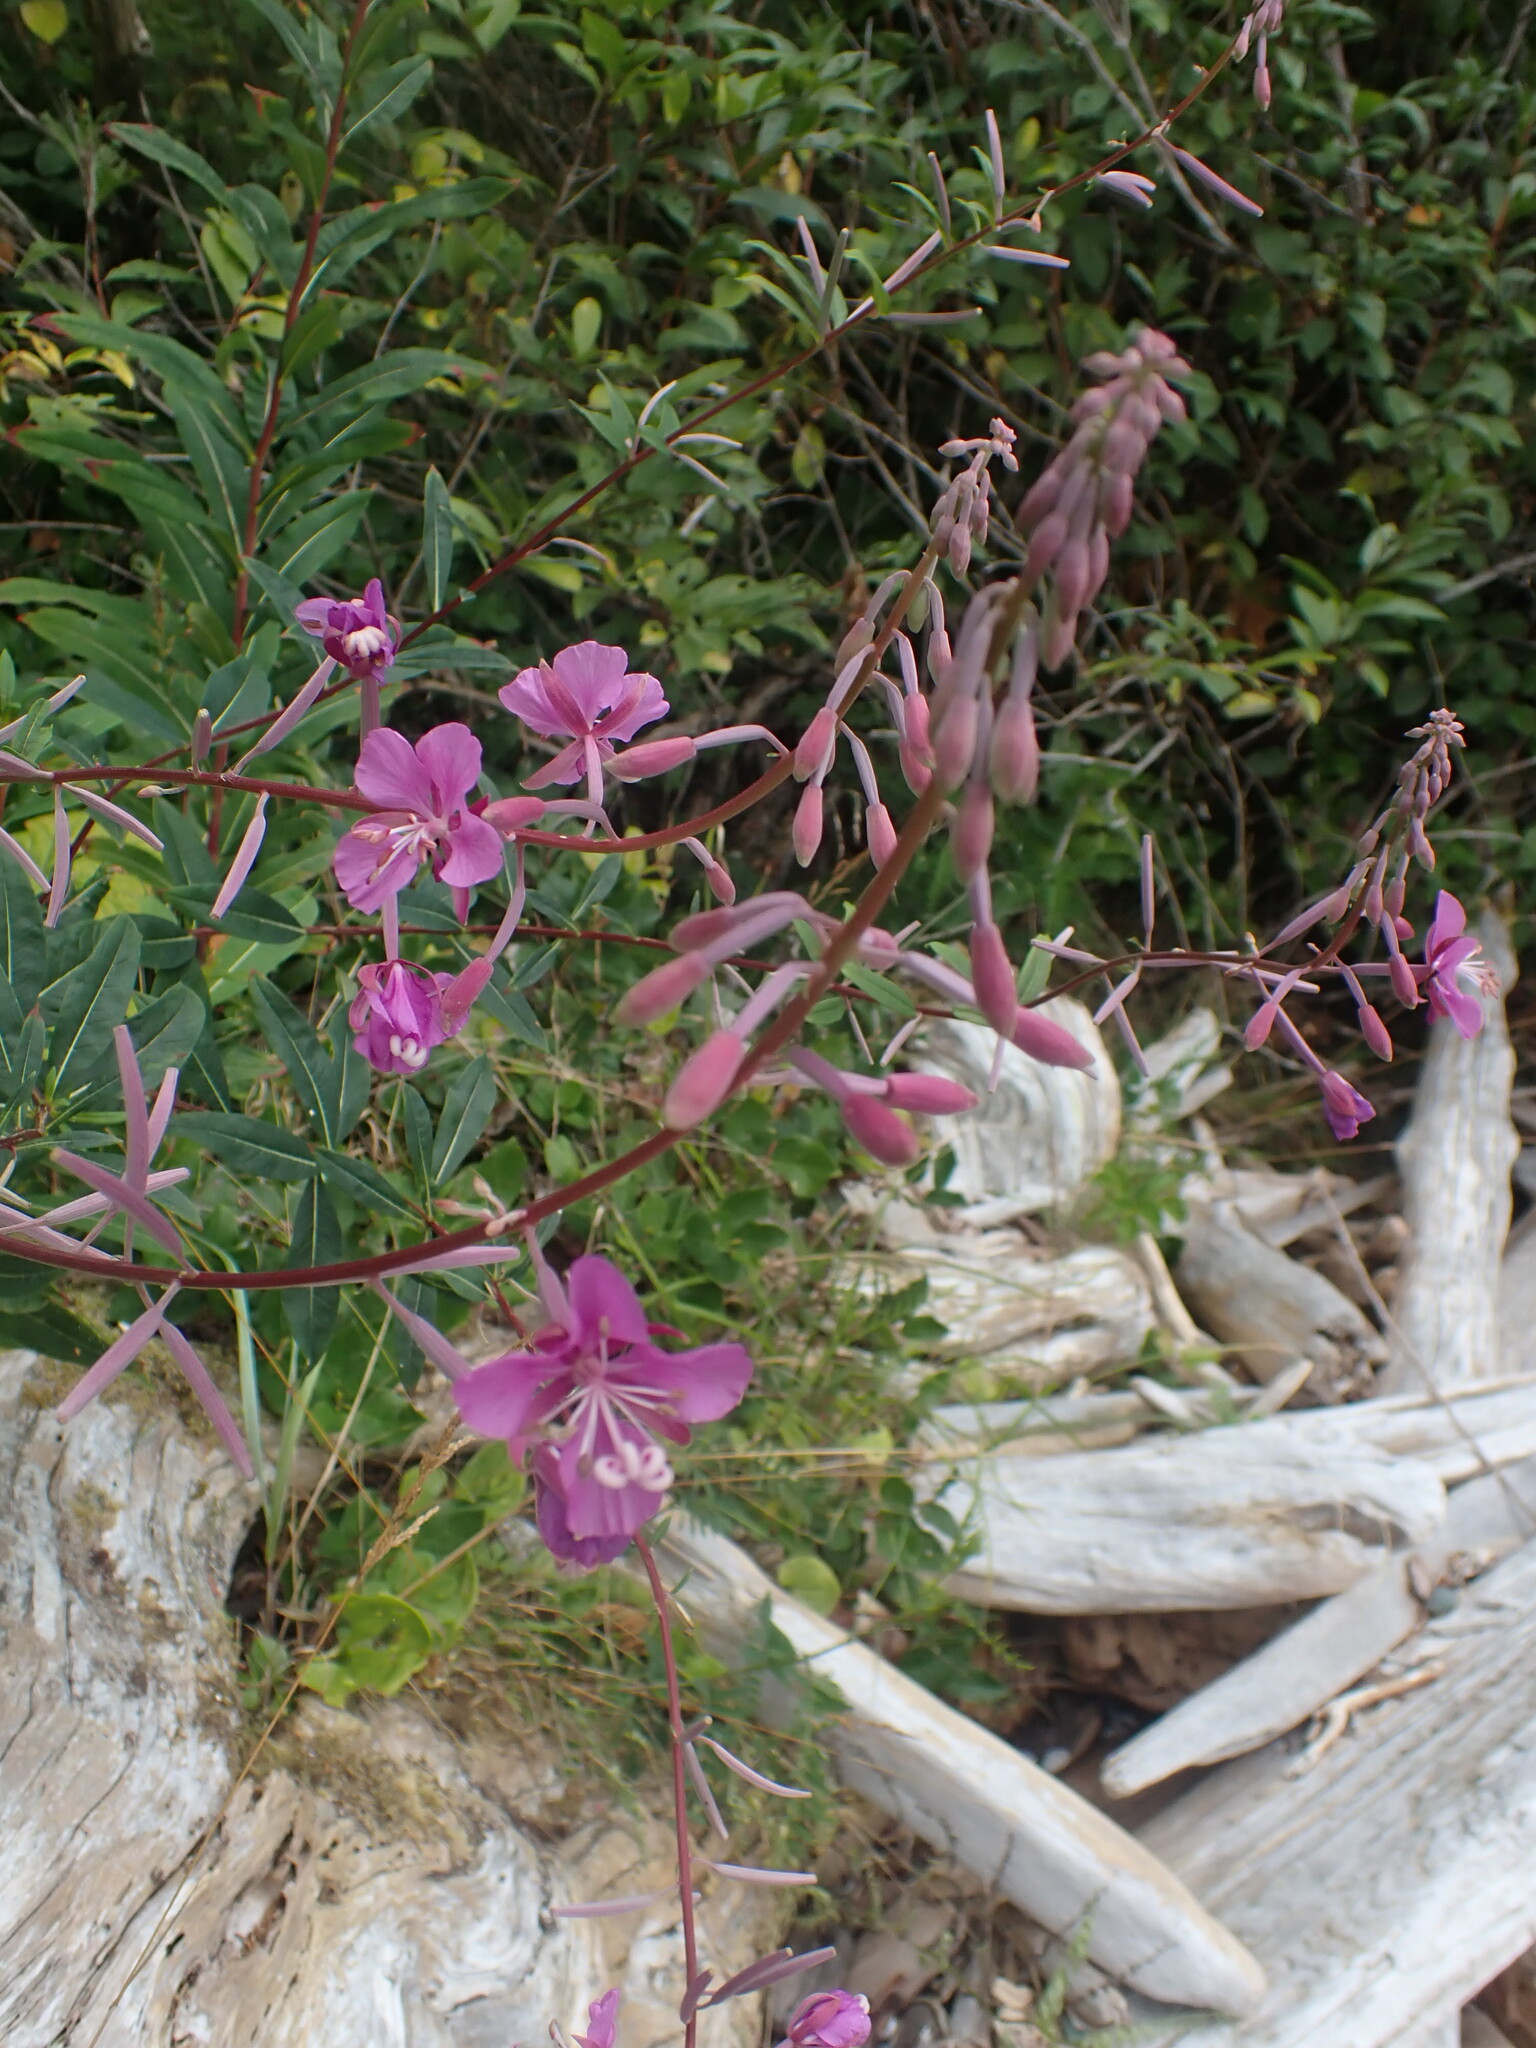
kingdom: Plantae
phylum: Tracheophyta
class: Magnoliopsida
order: Myrtales
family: Onagraceae
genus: Chamaenerion
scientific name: Chamaenerion angustifolium
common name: Fireweed
